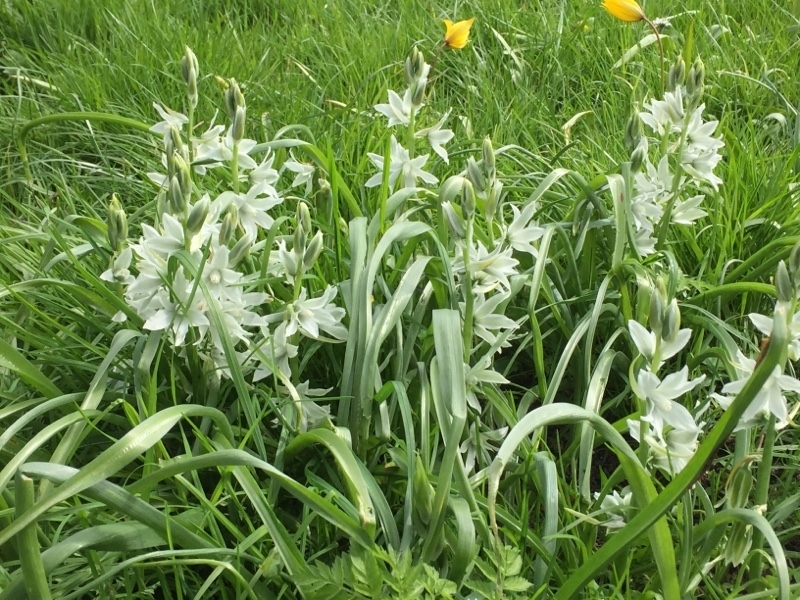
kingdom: Plantae
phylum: Tracheophyta
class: Liliopsida
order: Asparagales
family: Asparagaceae
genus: Ornithogalum
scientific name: Ornithogalum nutans
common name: Drooping star-of-bethlehem
